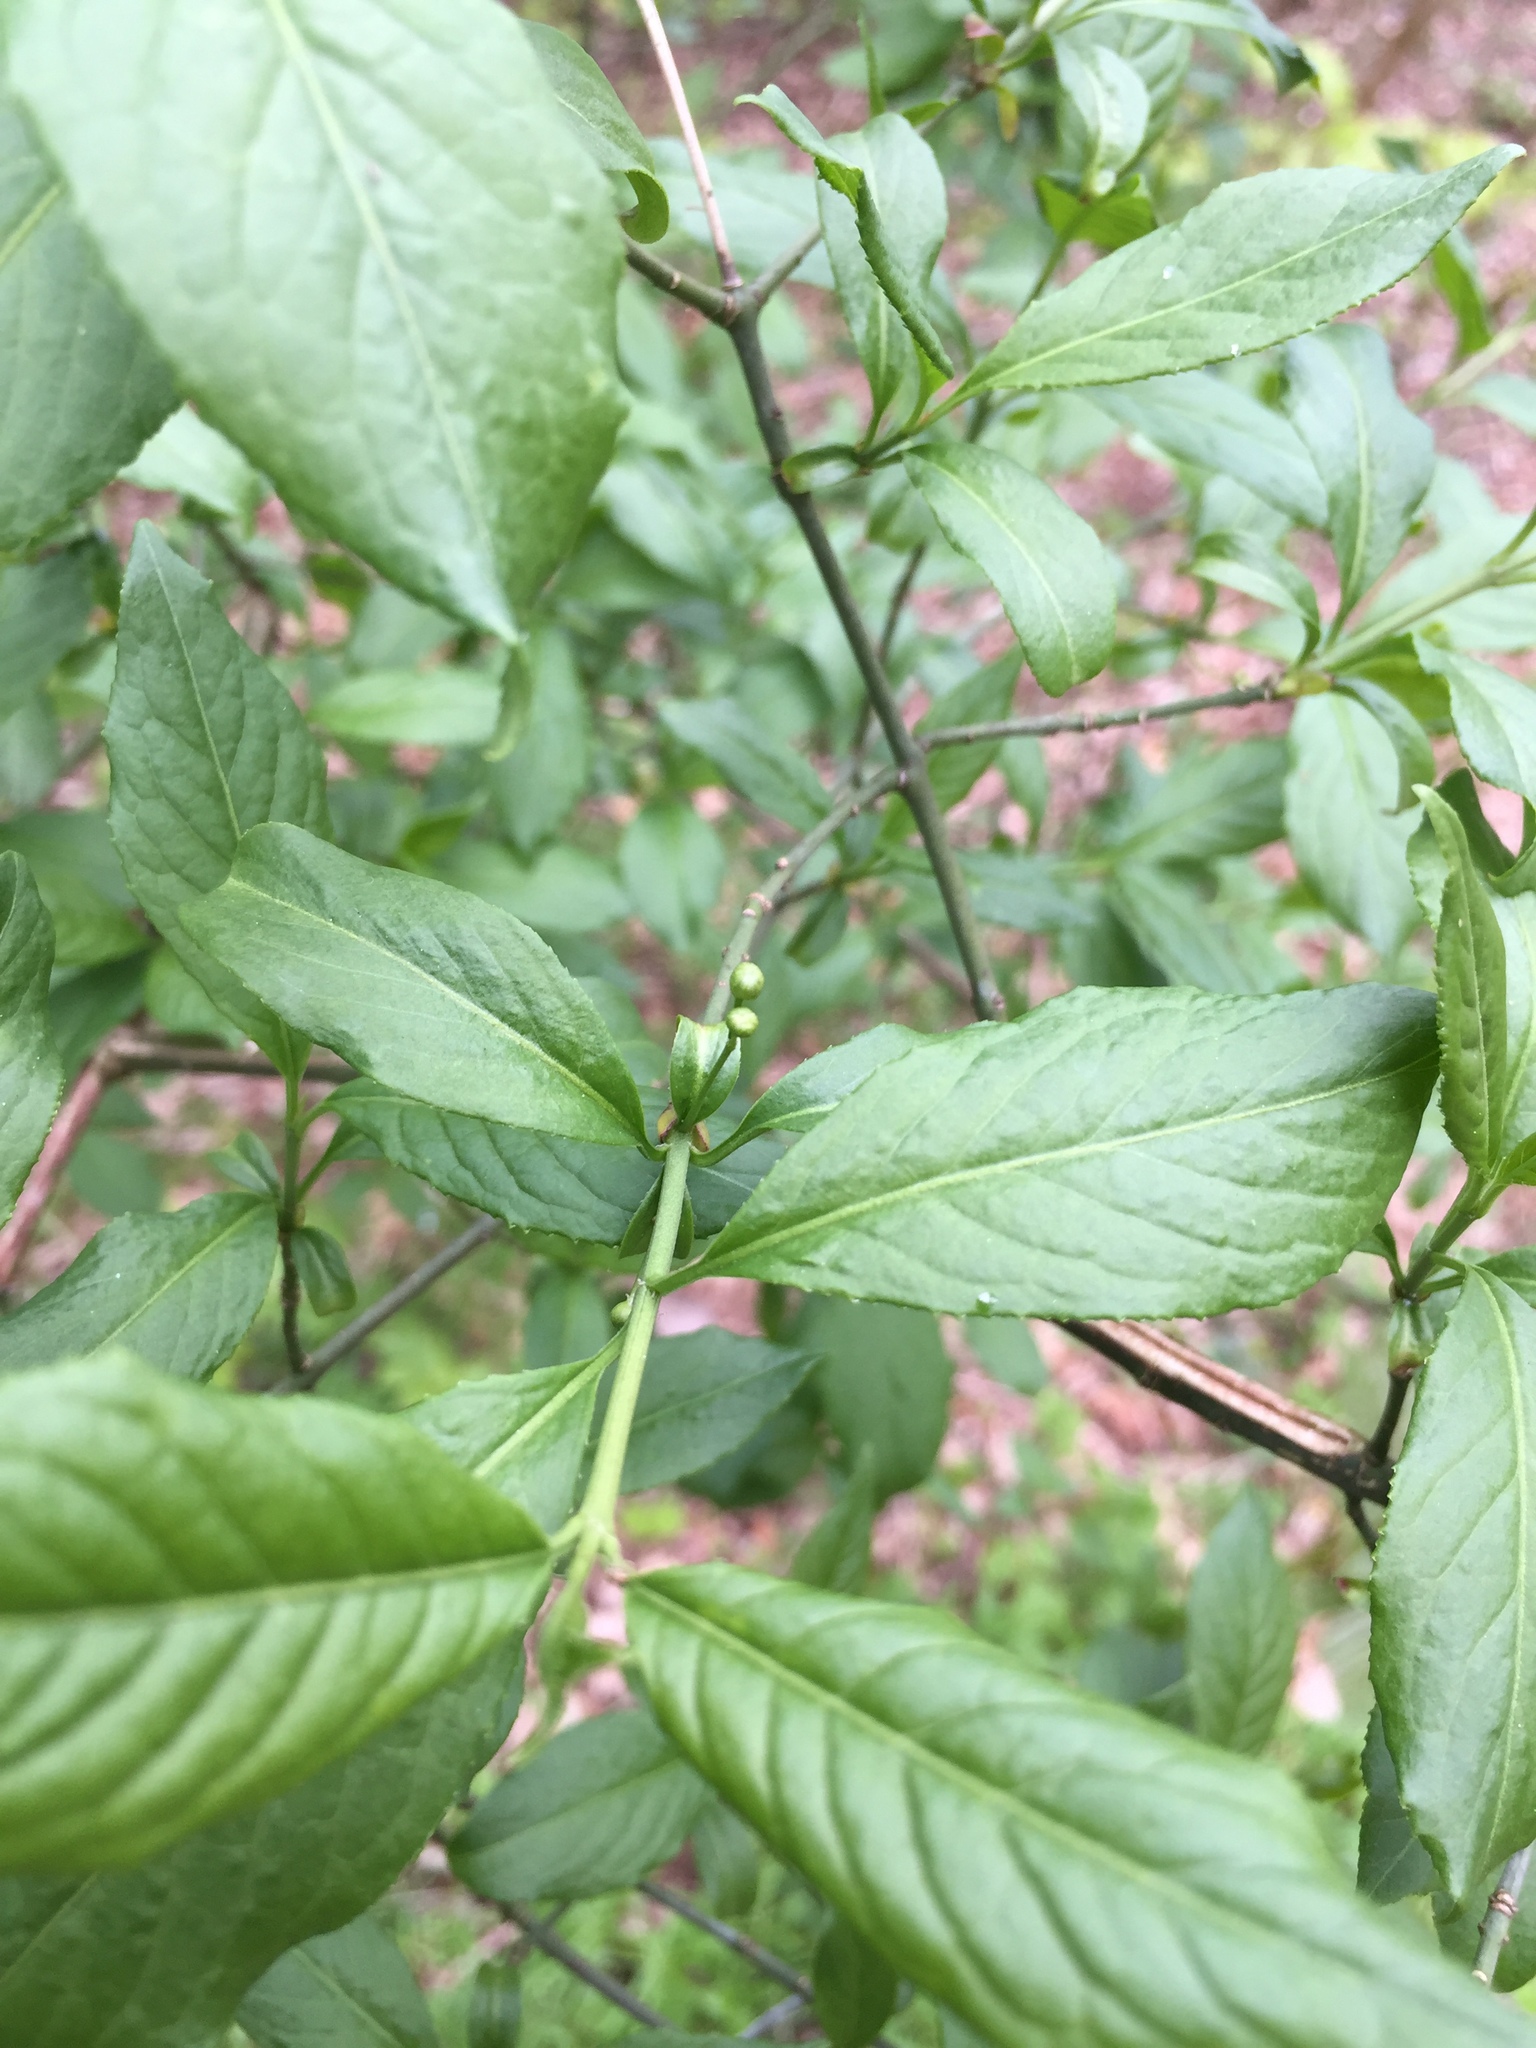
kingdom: Plantae
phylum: Tracheophyta
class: Magnoliopsida
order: Celastrales
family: Celastraceae
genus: Euonymus
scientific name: Euonymus europaeus
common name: Spindle
